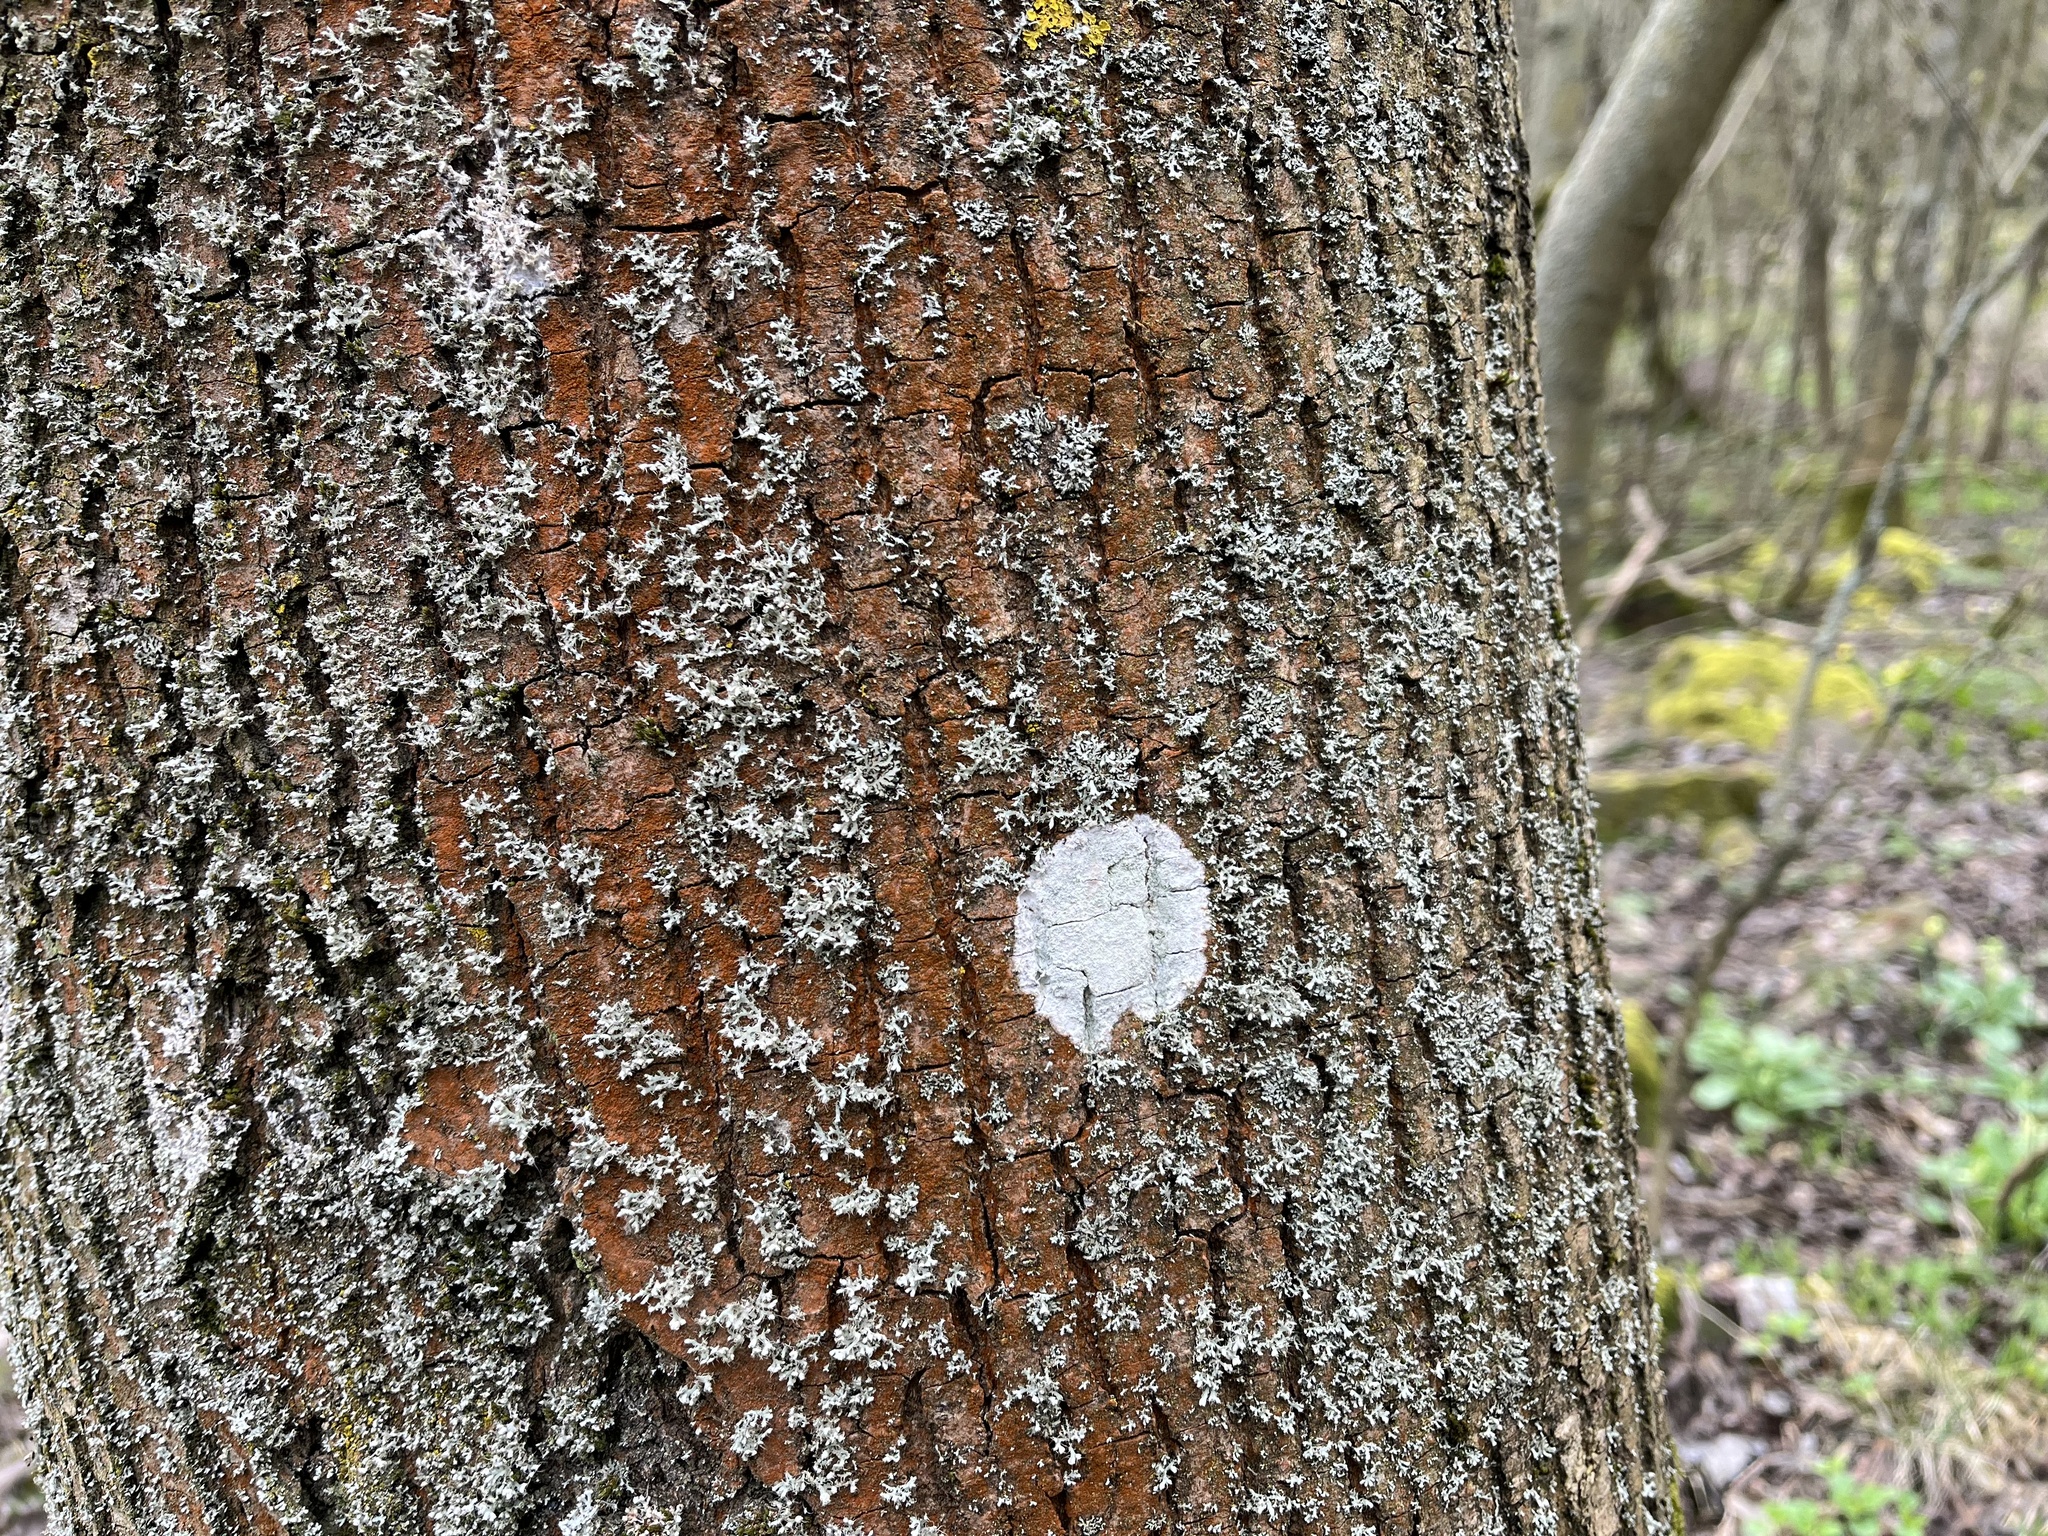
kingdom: Fungi
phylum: Ascomycota
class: Lecanoromycetes
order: Ostropales
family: Phlyctidaceae
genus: Phlyctis
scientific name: Phlyctis argena
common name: Whitewash lichen
